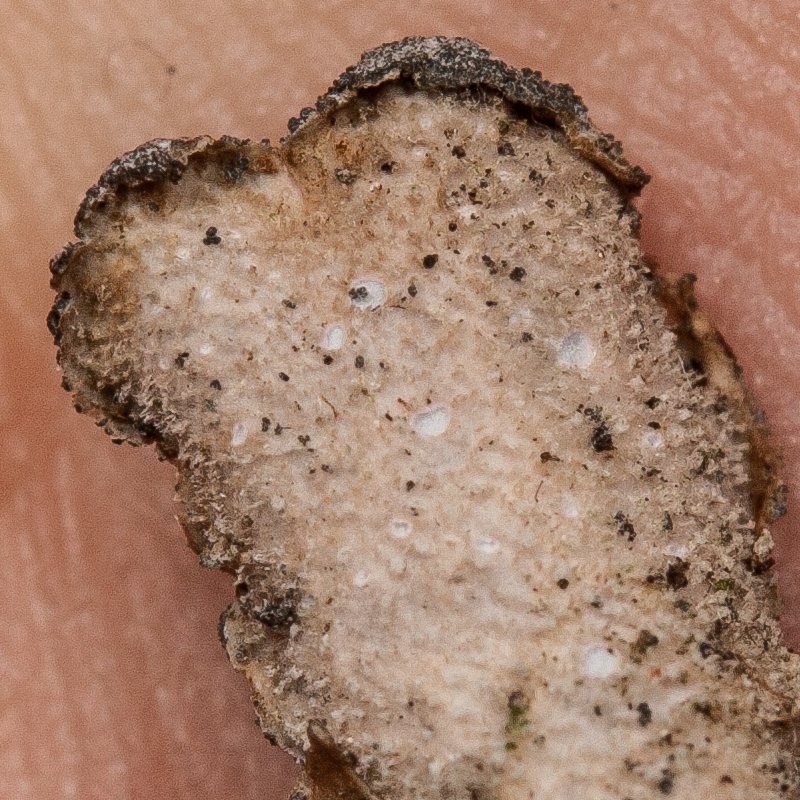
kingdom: Fungi
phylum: Ascomycota
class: Lecanoromycetes
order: Peltigerales
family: Lobariaceae
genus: Sticta
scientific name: Sticta limbata
